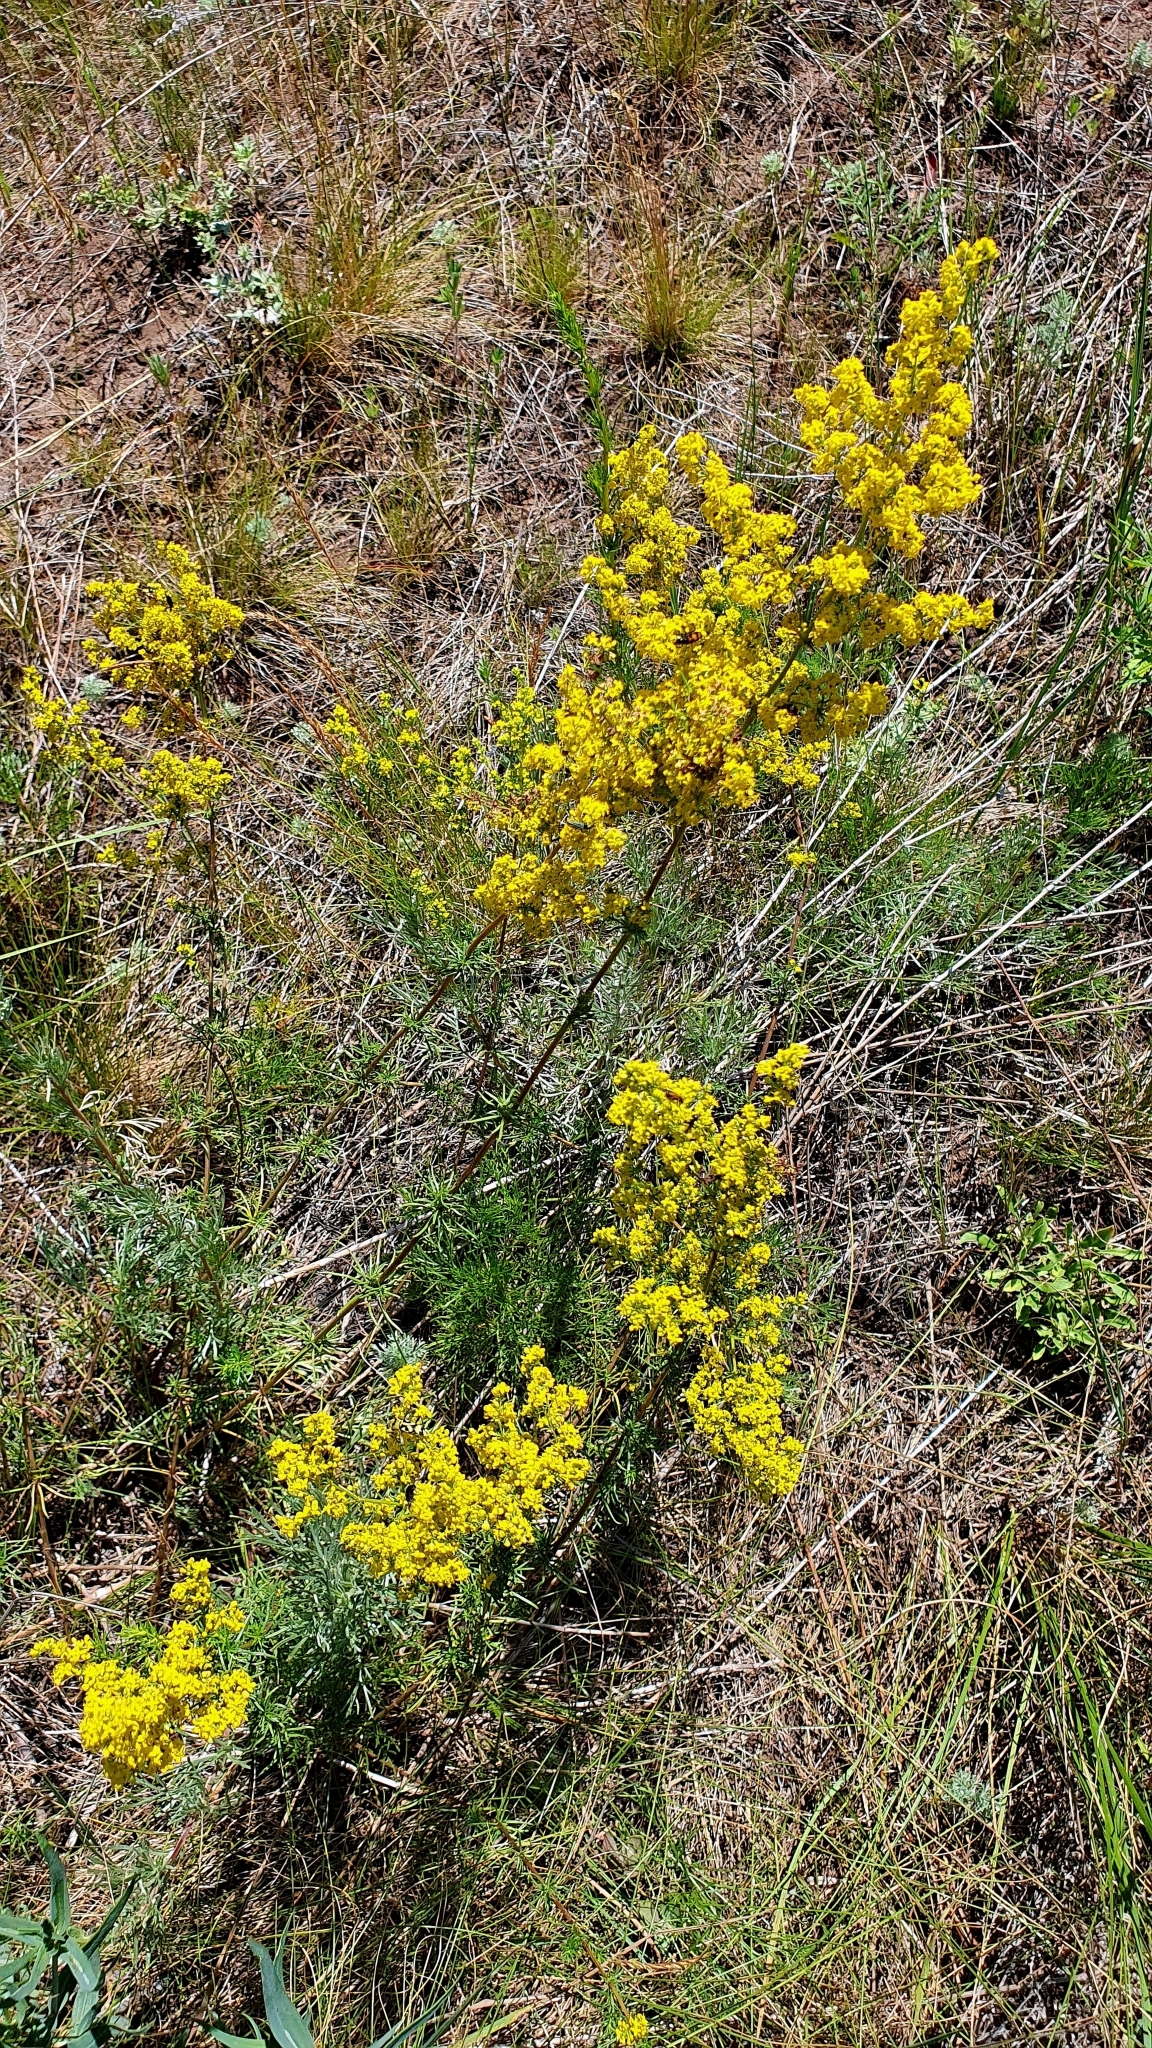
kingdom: Plantae
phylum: Tracheophyta
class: Magnoliopsida
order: Gentianales
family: Rubiaceae
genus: Galium
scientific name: Galium verum
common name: Lady's bedstraw
